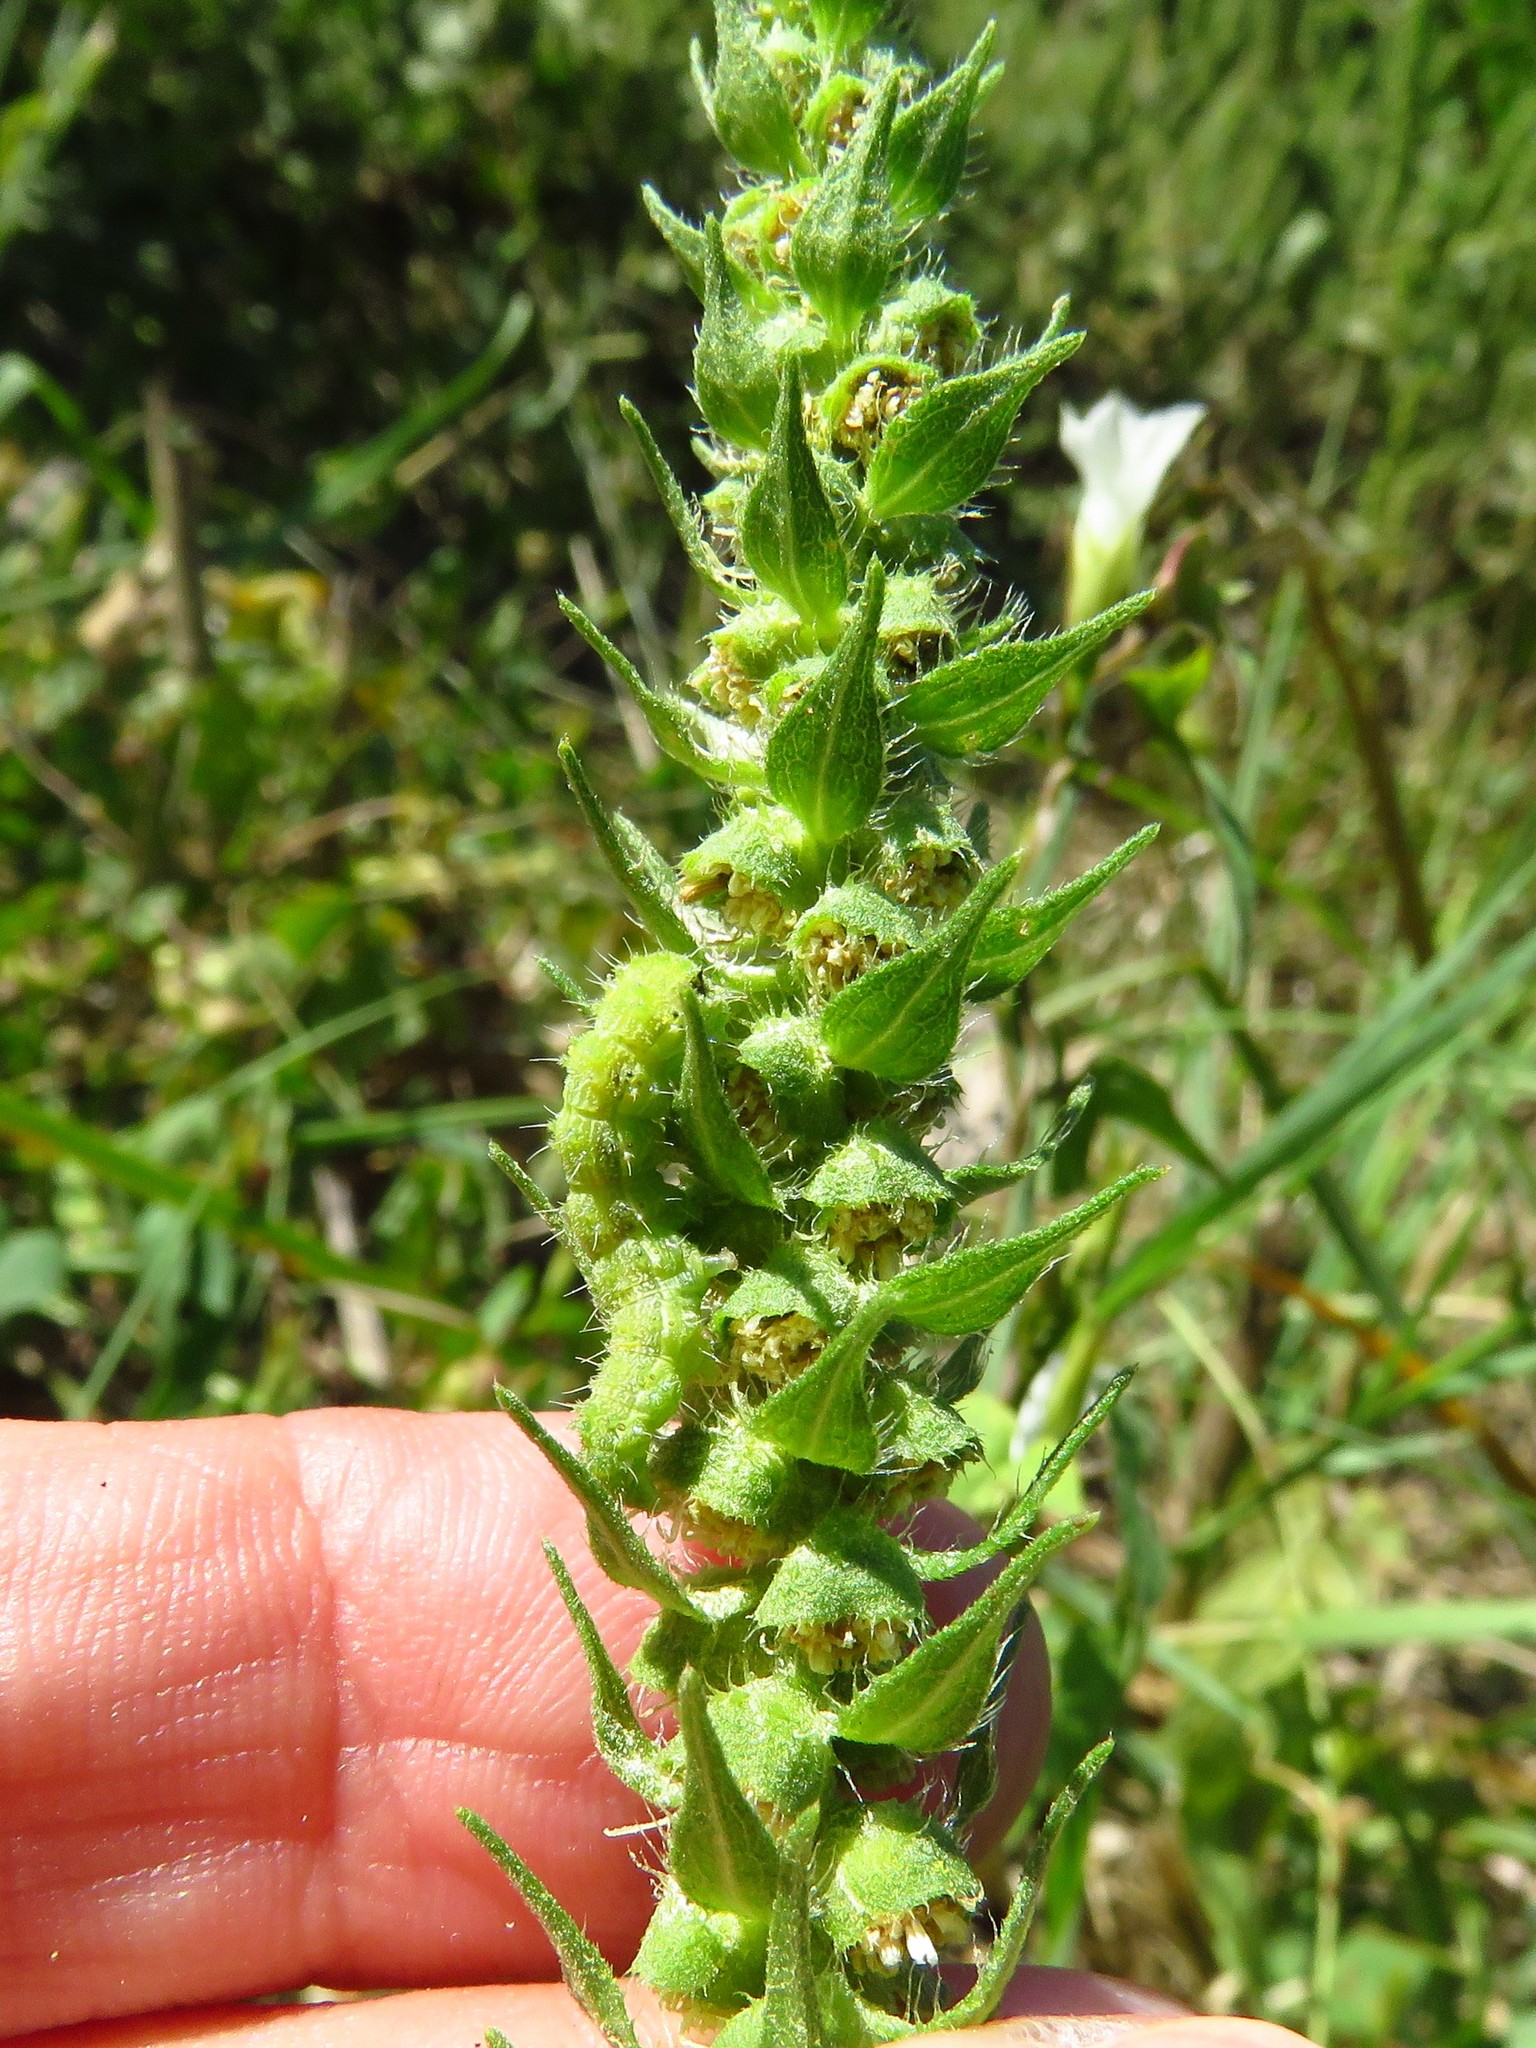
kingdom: Plantae
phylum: Tracheophyta
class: Magnoliopsida
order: Asterales
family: Asteraceae
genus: Iva
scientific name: Iva annua
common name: Marsh-elder
